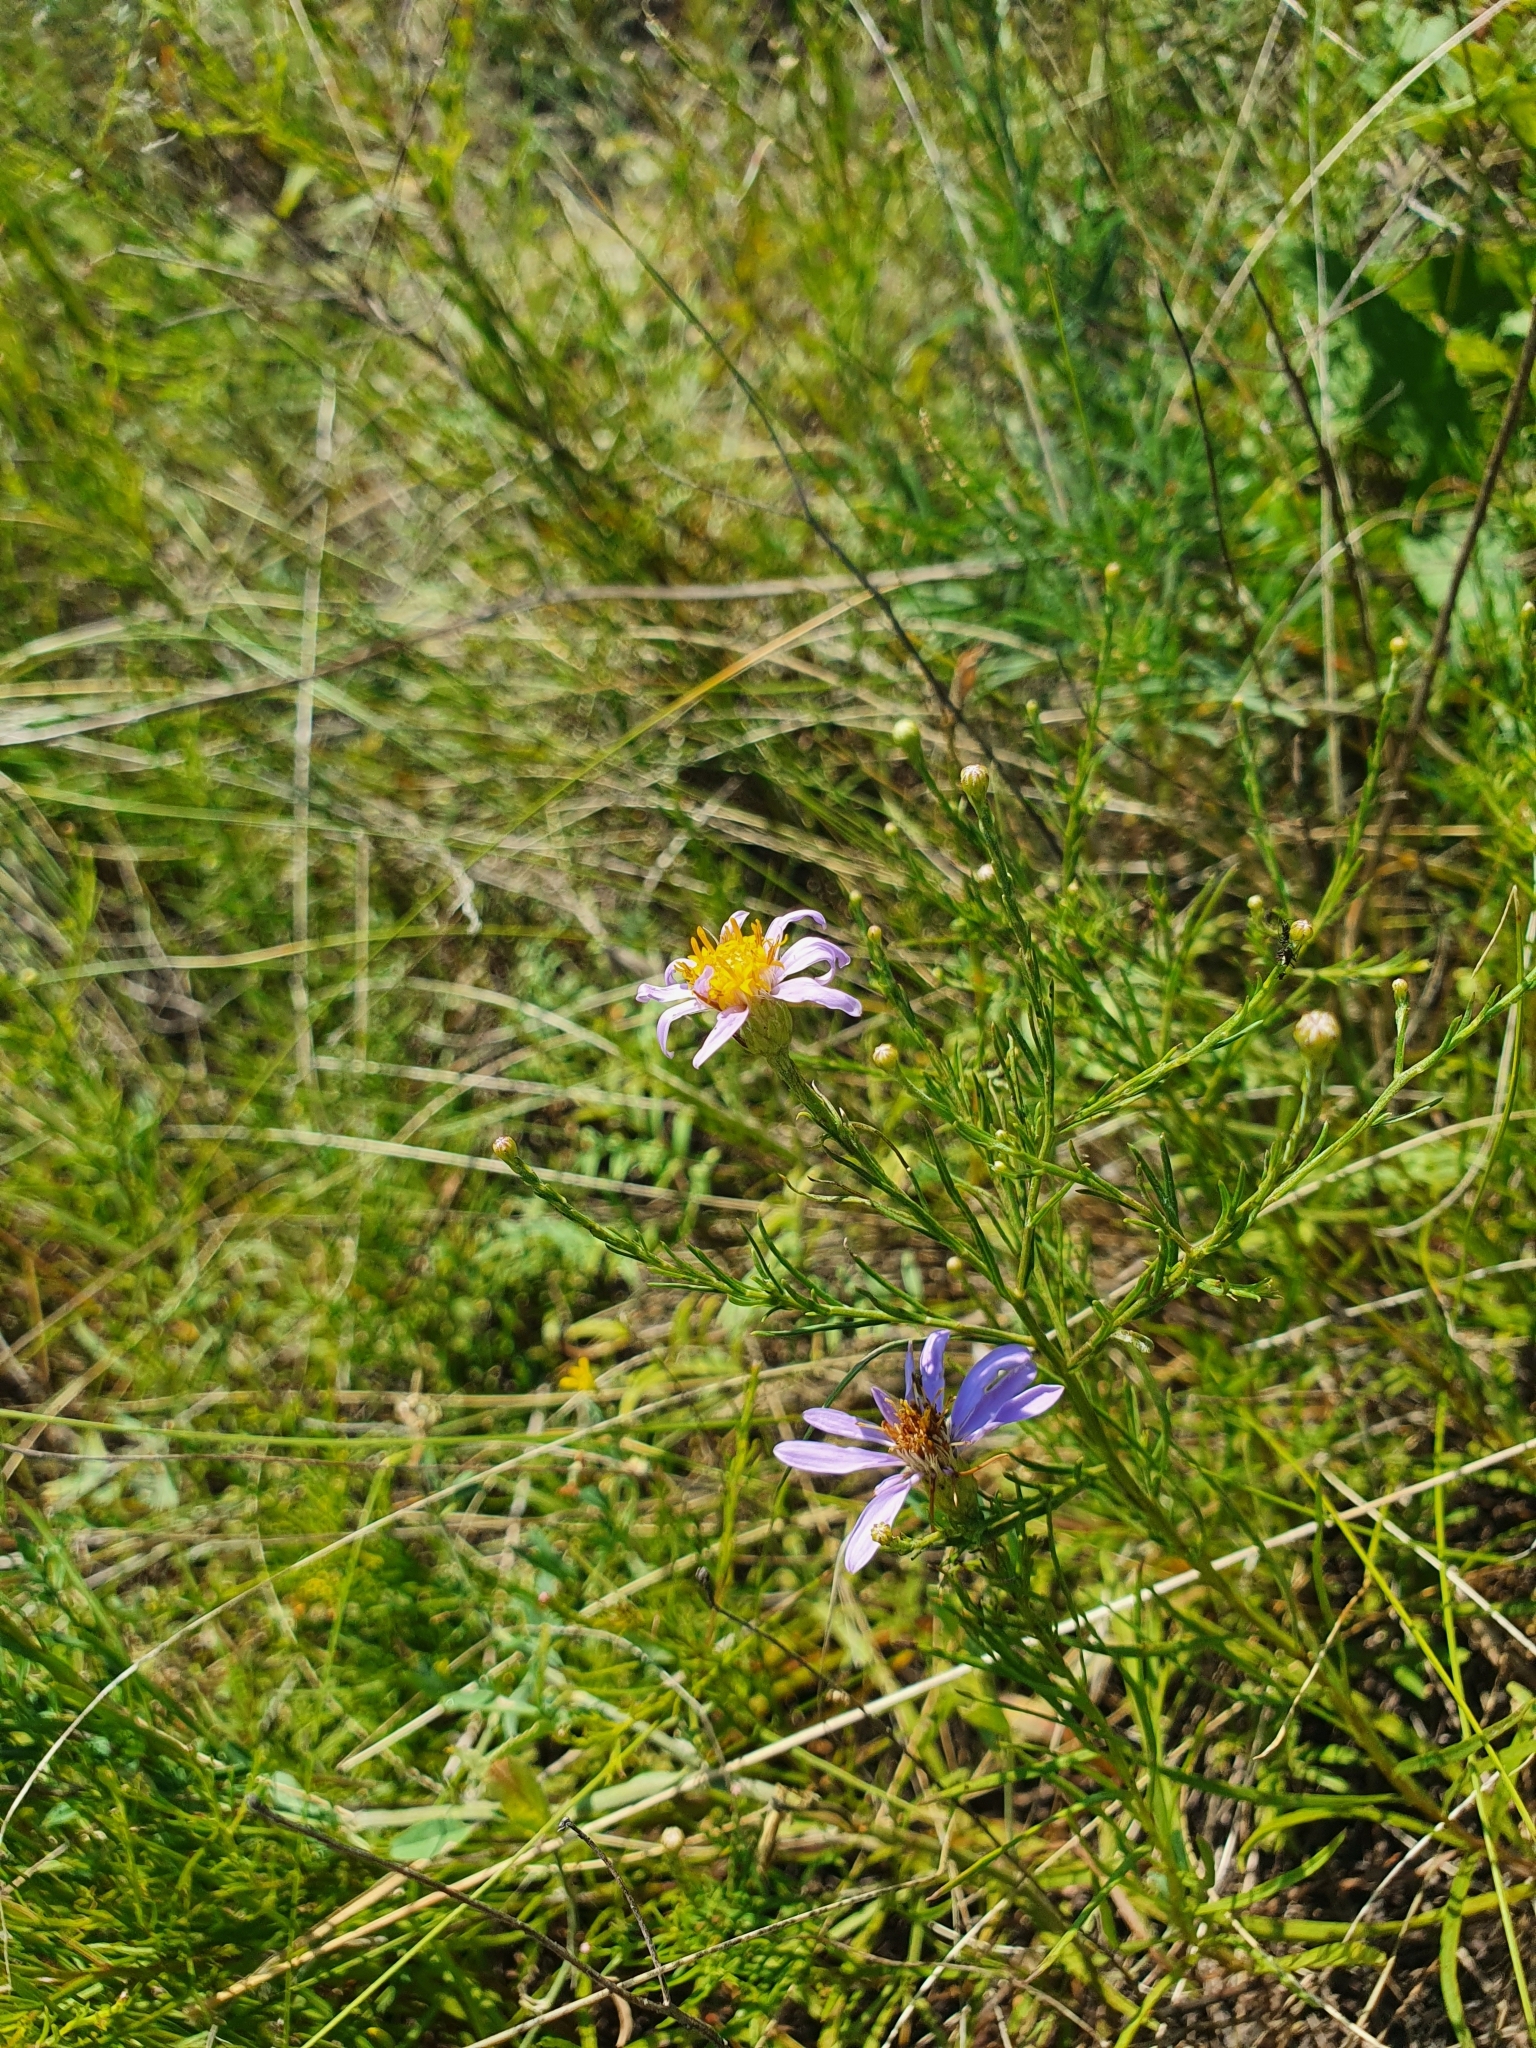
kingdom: Plantae
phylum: Tracheophyta
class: Magnoliopsida
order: Asterales
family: Asteraceae
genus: Galatella
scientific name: Galatella angustissima
